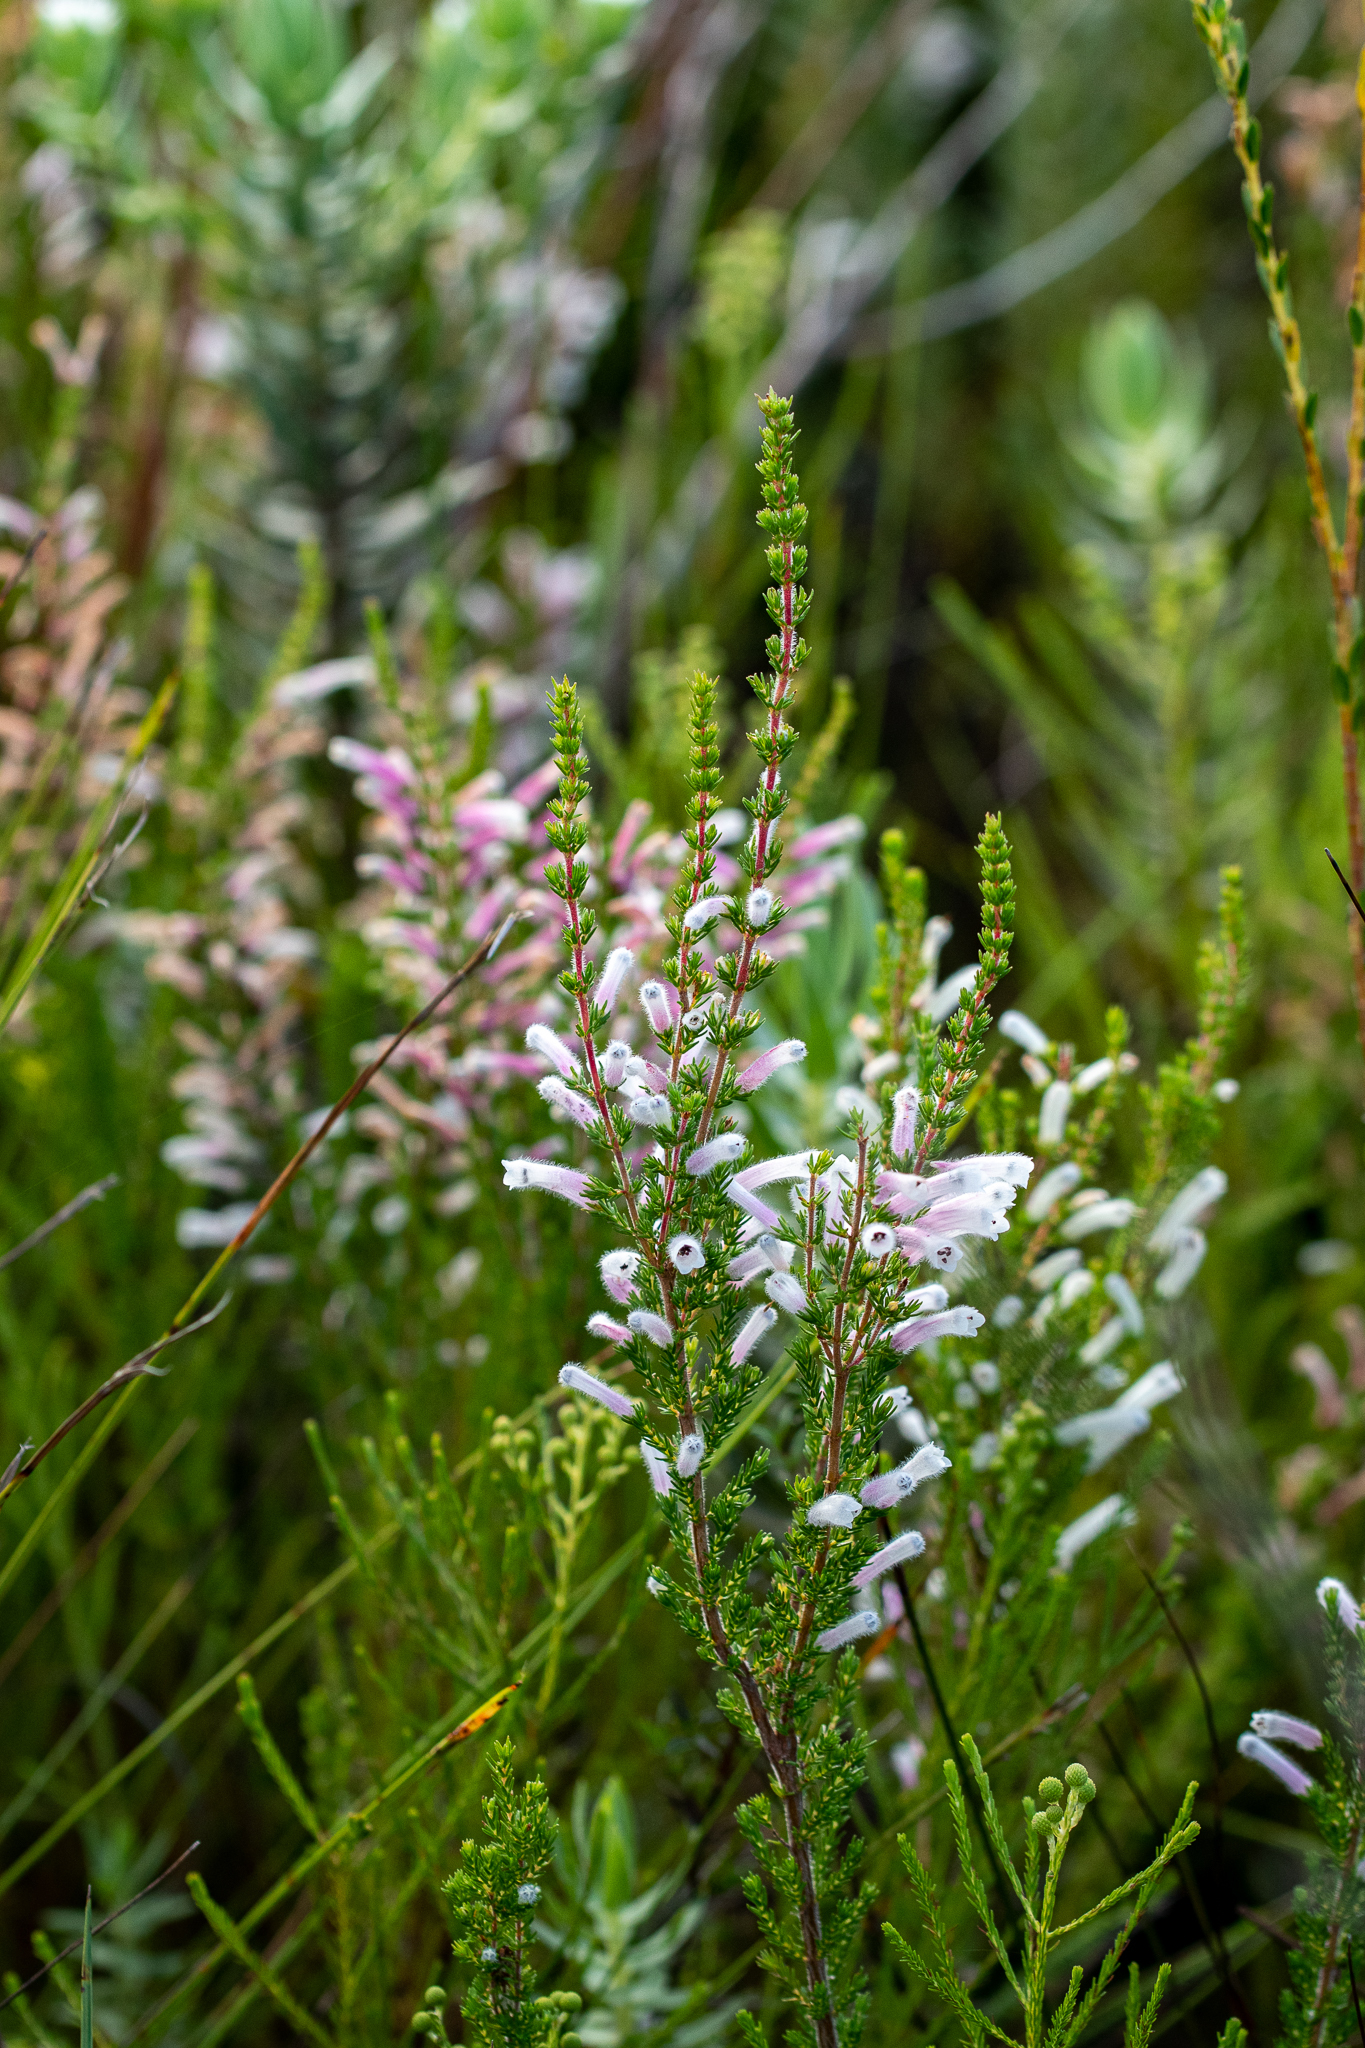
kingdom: Plantae
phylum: Tracheophyta
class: Magnoliopsida
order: Ericales
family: Ericaceae
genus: Erica
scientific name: Erica perspicua
